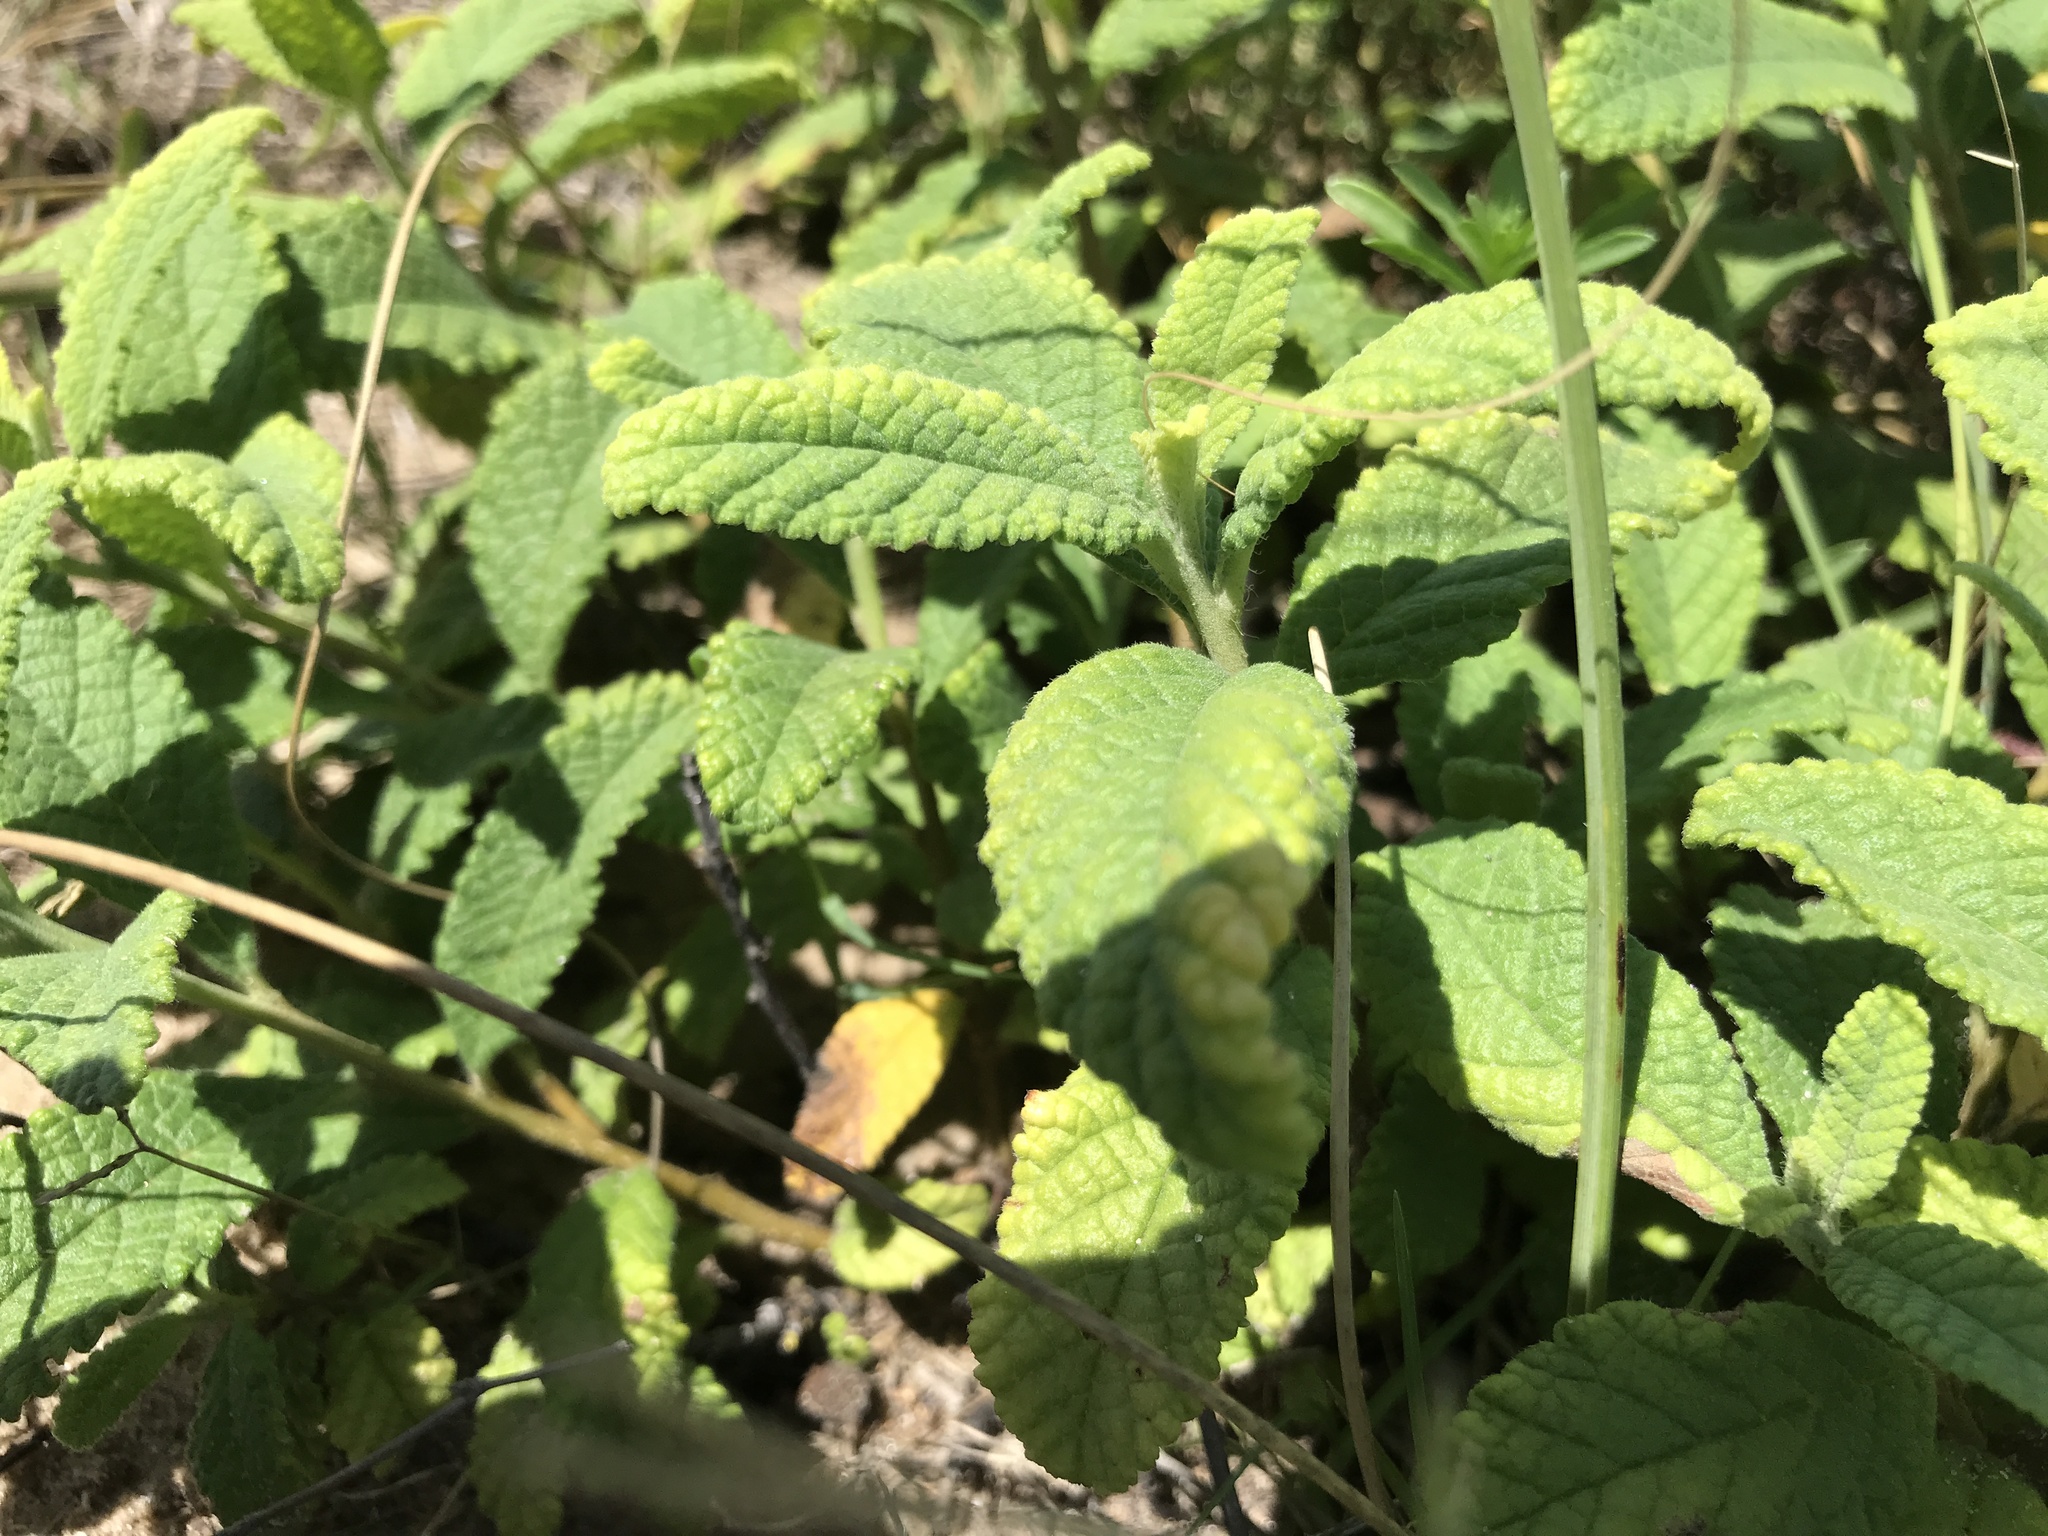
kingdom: Plantae
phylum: Tracheophyta
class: Magnoliopsida
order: Boraginales
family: Cordiaceae
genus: Varronia
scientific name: Varronia curassavica
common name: Black sage
